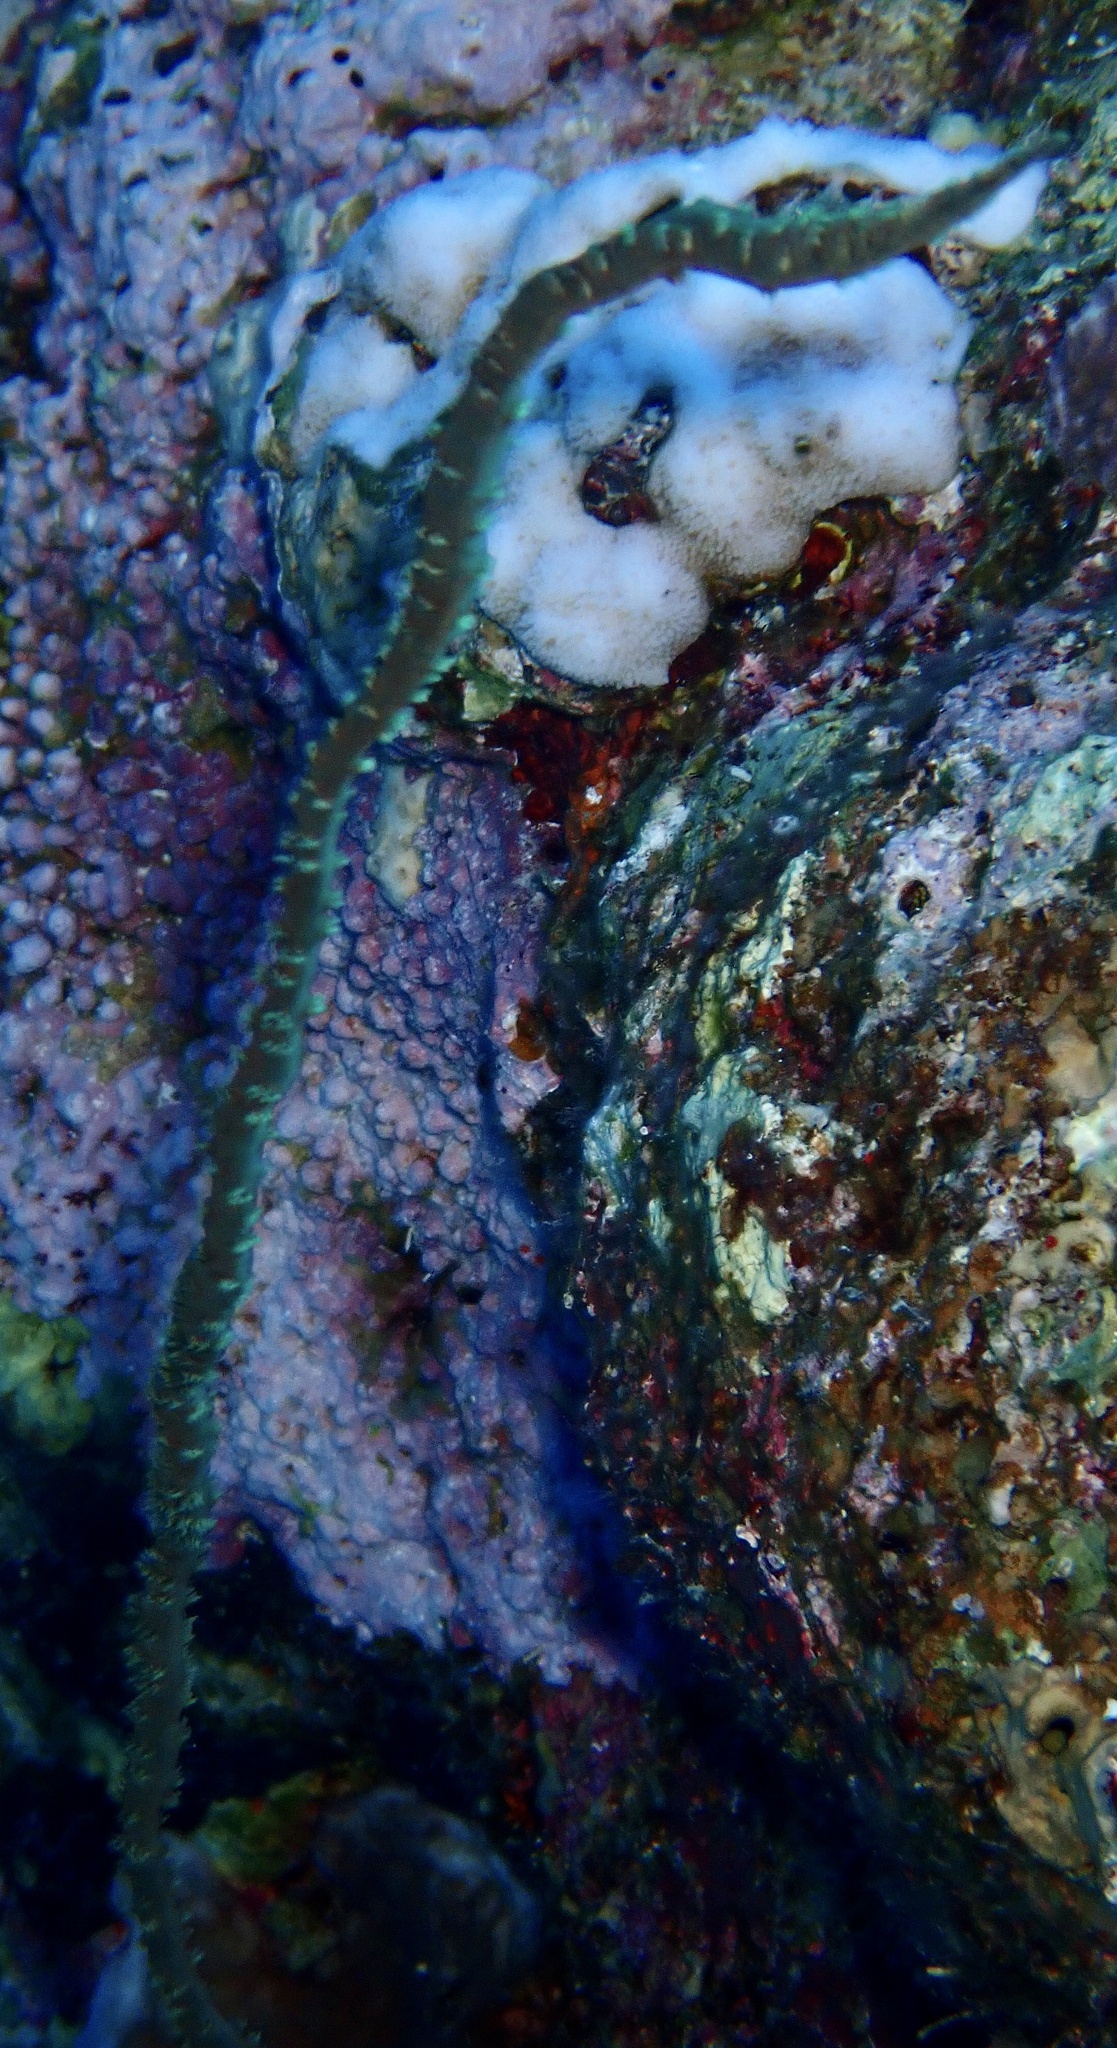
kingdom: Animalia
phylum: Cnidaria
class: Anthozoa
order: Antipatharia
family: Antipathidae
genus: Cirrhipathes
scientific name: Cirrhipathes
